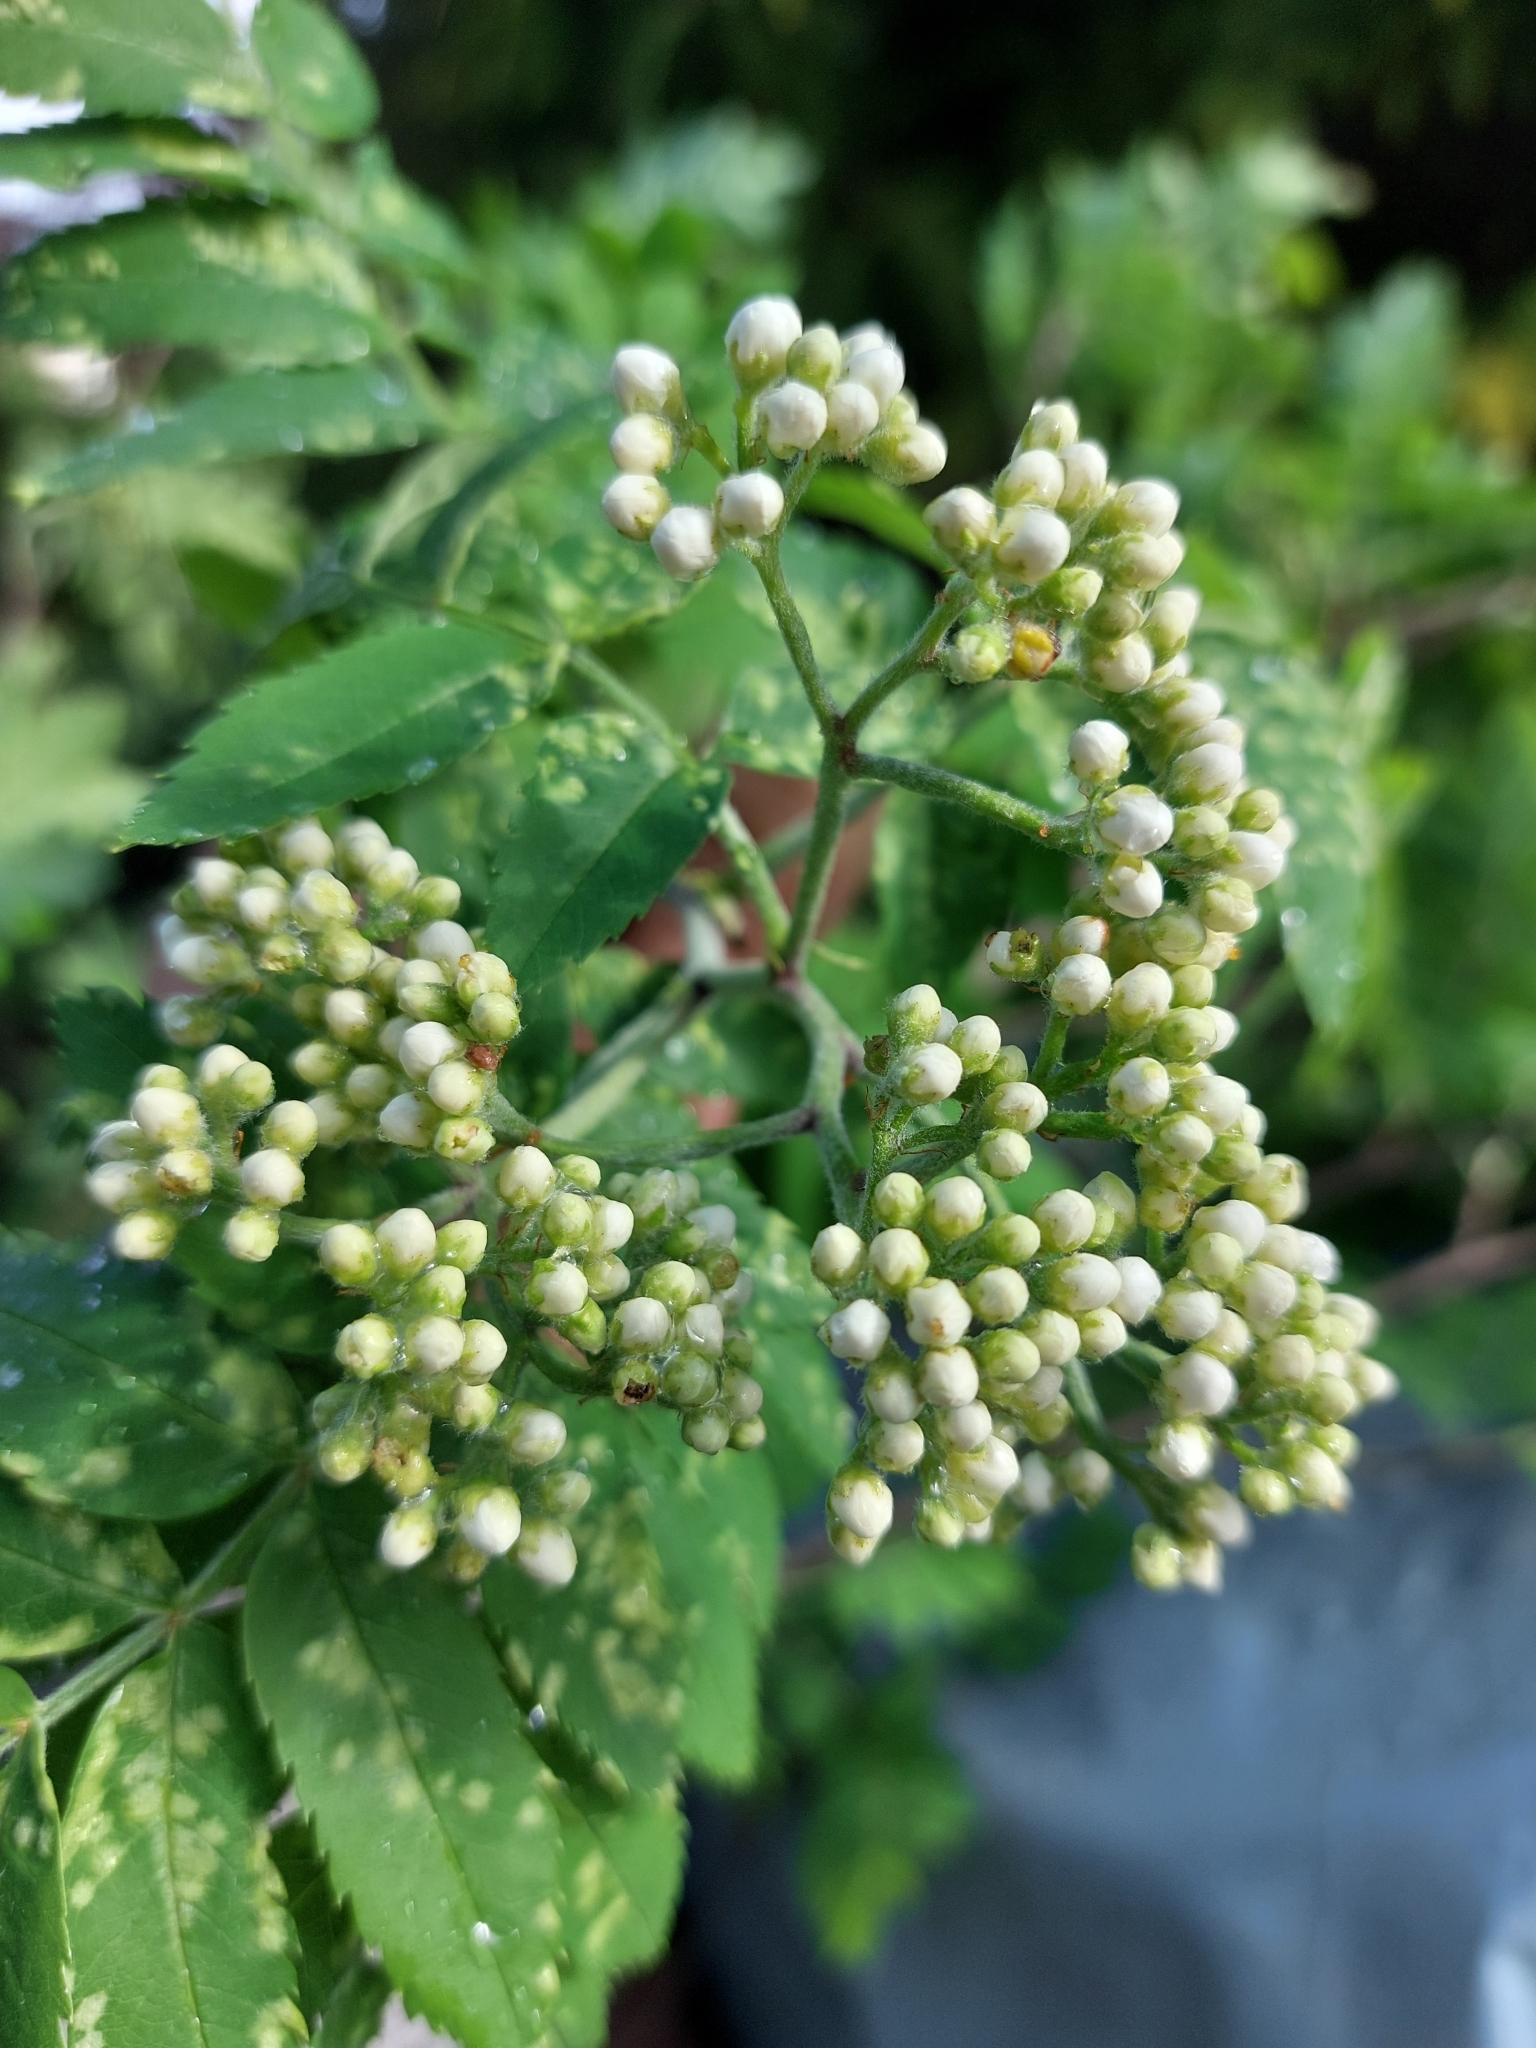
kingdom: Plantae
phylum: Tracheophyta
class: Magnoliopsida
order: Rosales
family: Rosaceae
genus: Sorbus
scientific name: Sorbus aucuparia
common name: Rowan
